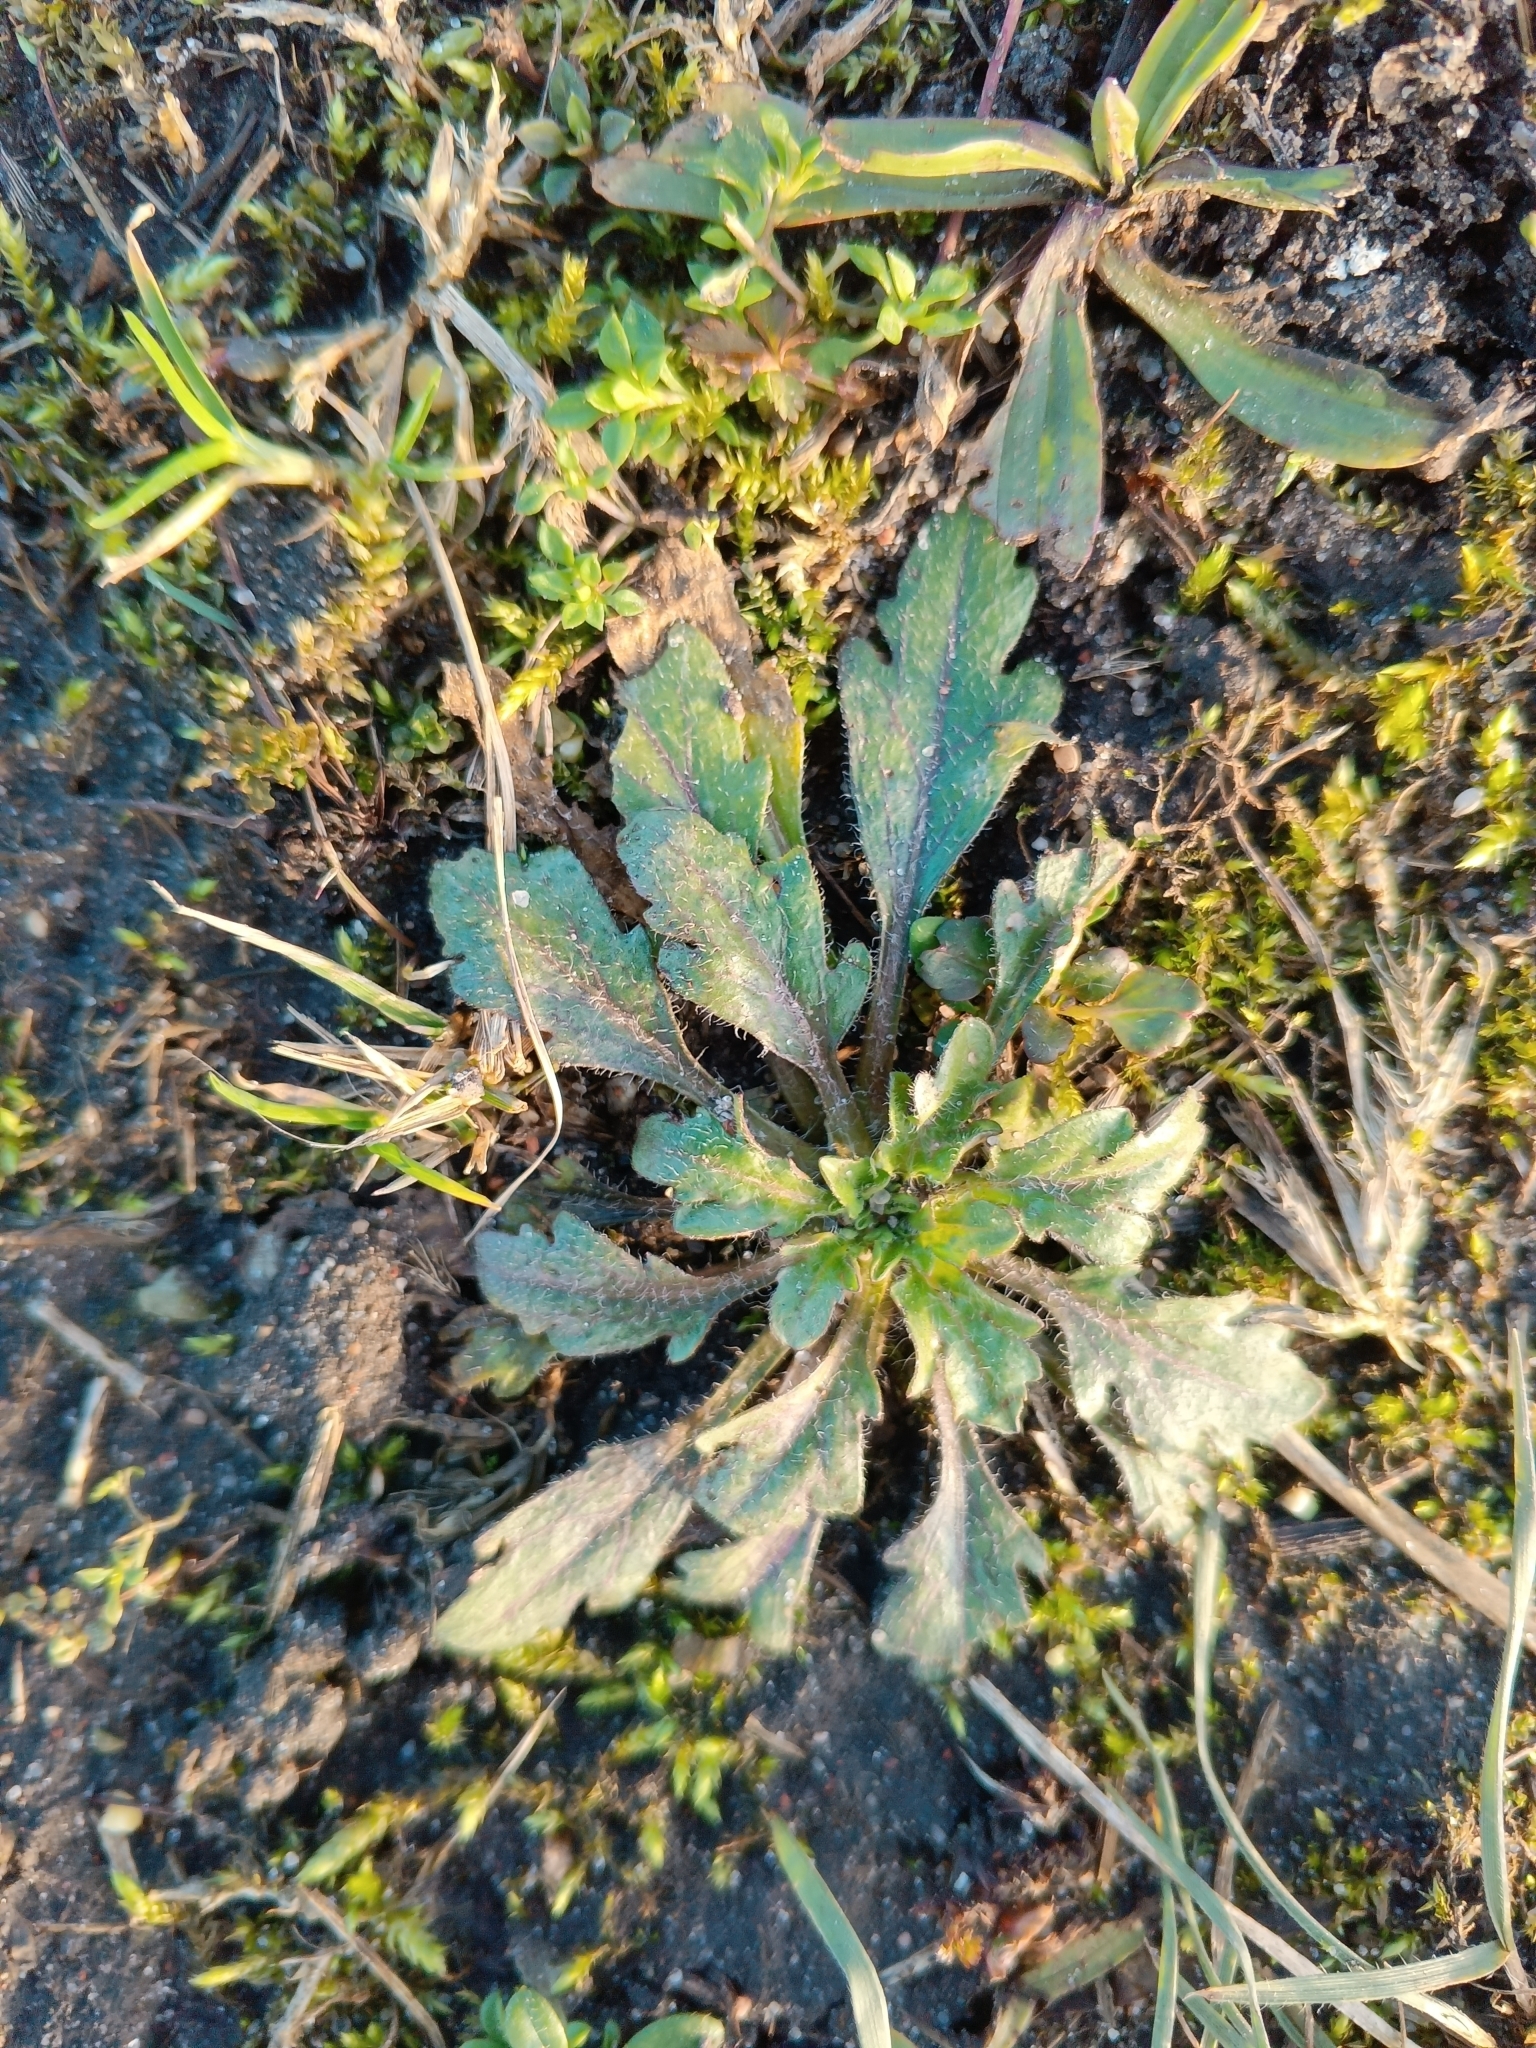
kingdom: Plantae
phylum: Tracheophyta
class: Magnoliopsida
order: Asterales
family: Asteraceae
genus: Erigeron
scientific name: Erigeron canadensis
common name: Canadian fleabane
